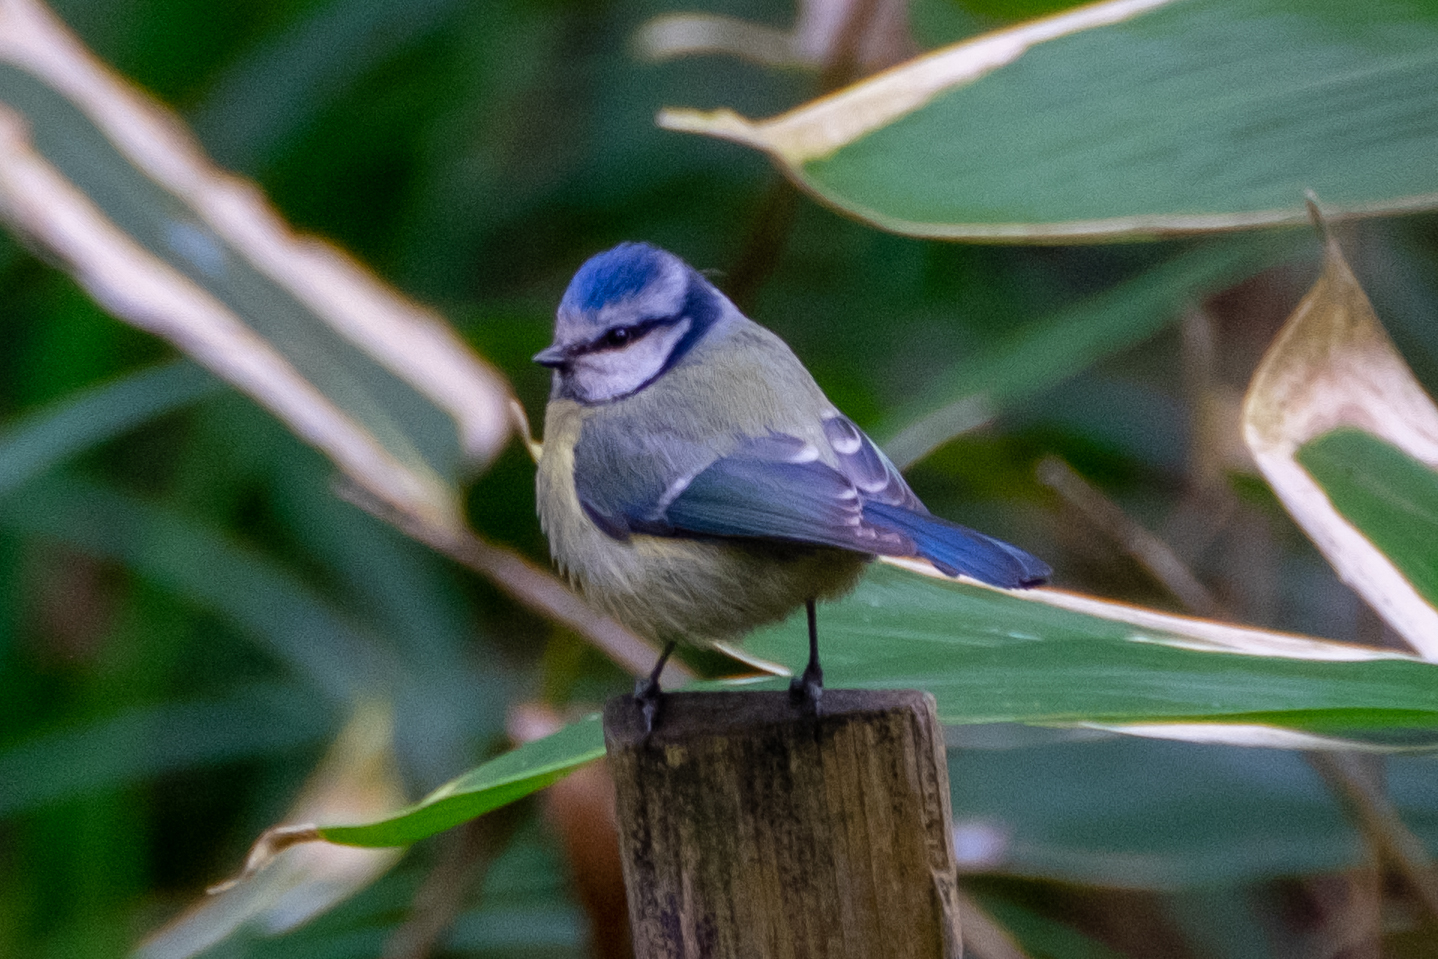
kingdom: Animalia
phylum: Chordata
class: Aves
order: Passeriformes
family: Paridae
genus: Cyanistes
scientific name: Cyanistes caeruleus
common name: Eurasian blue tit
